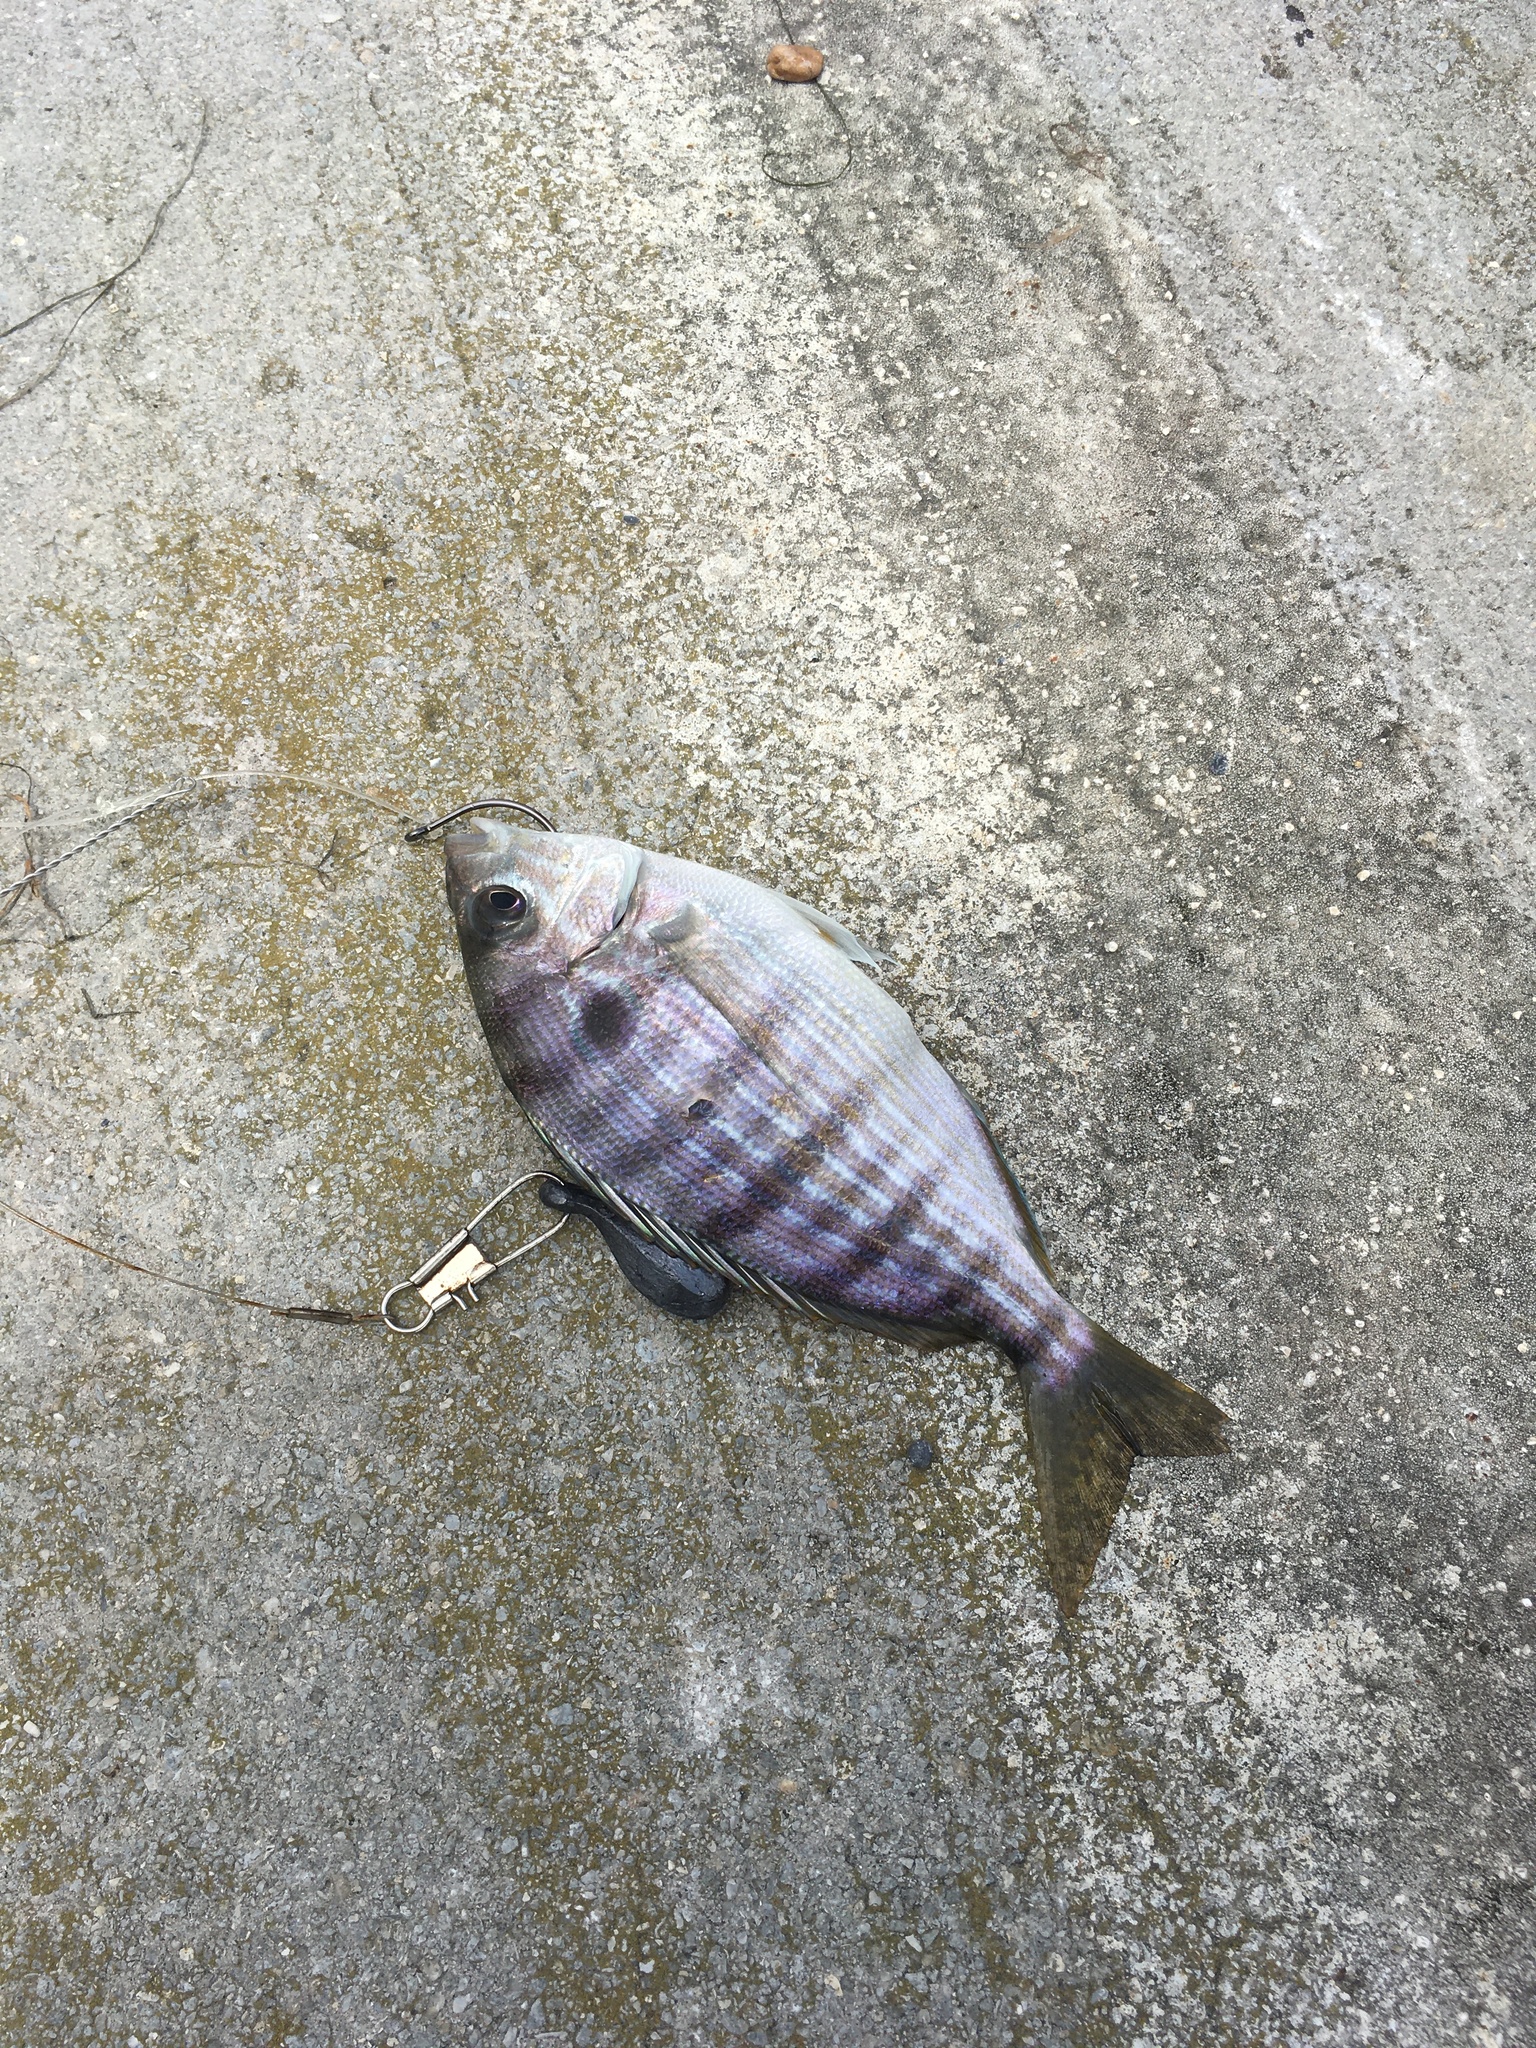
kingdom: Animalia
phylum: Chordata
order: Perciformes
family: Sparidae
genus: Lagodon
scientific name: Lagodon rhomboides
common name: Pinfish
